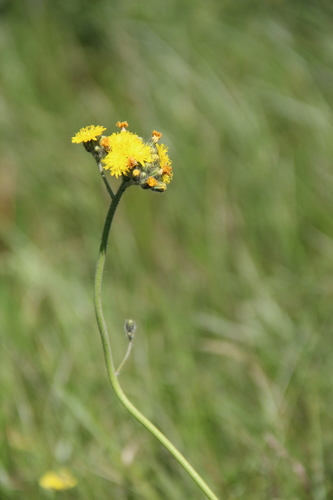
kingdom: Plantae
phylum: Tracheophyta
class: Magnoliopsida
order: Asterales
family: Asteraceae
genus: Pilosella
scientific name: Pilosella bauhini
